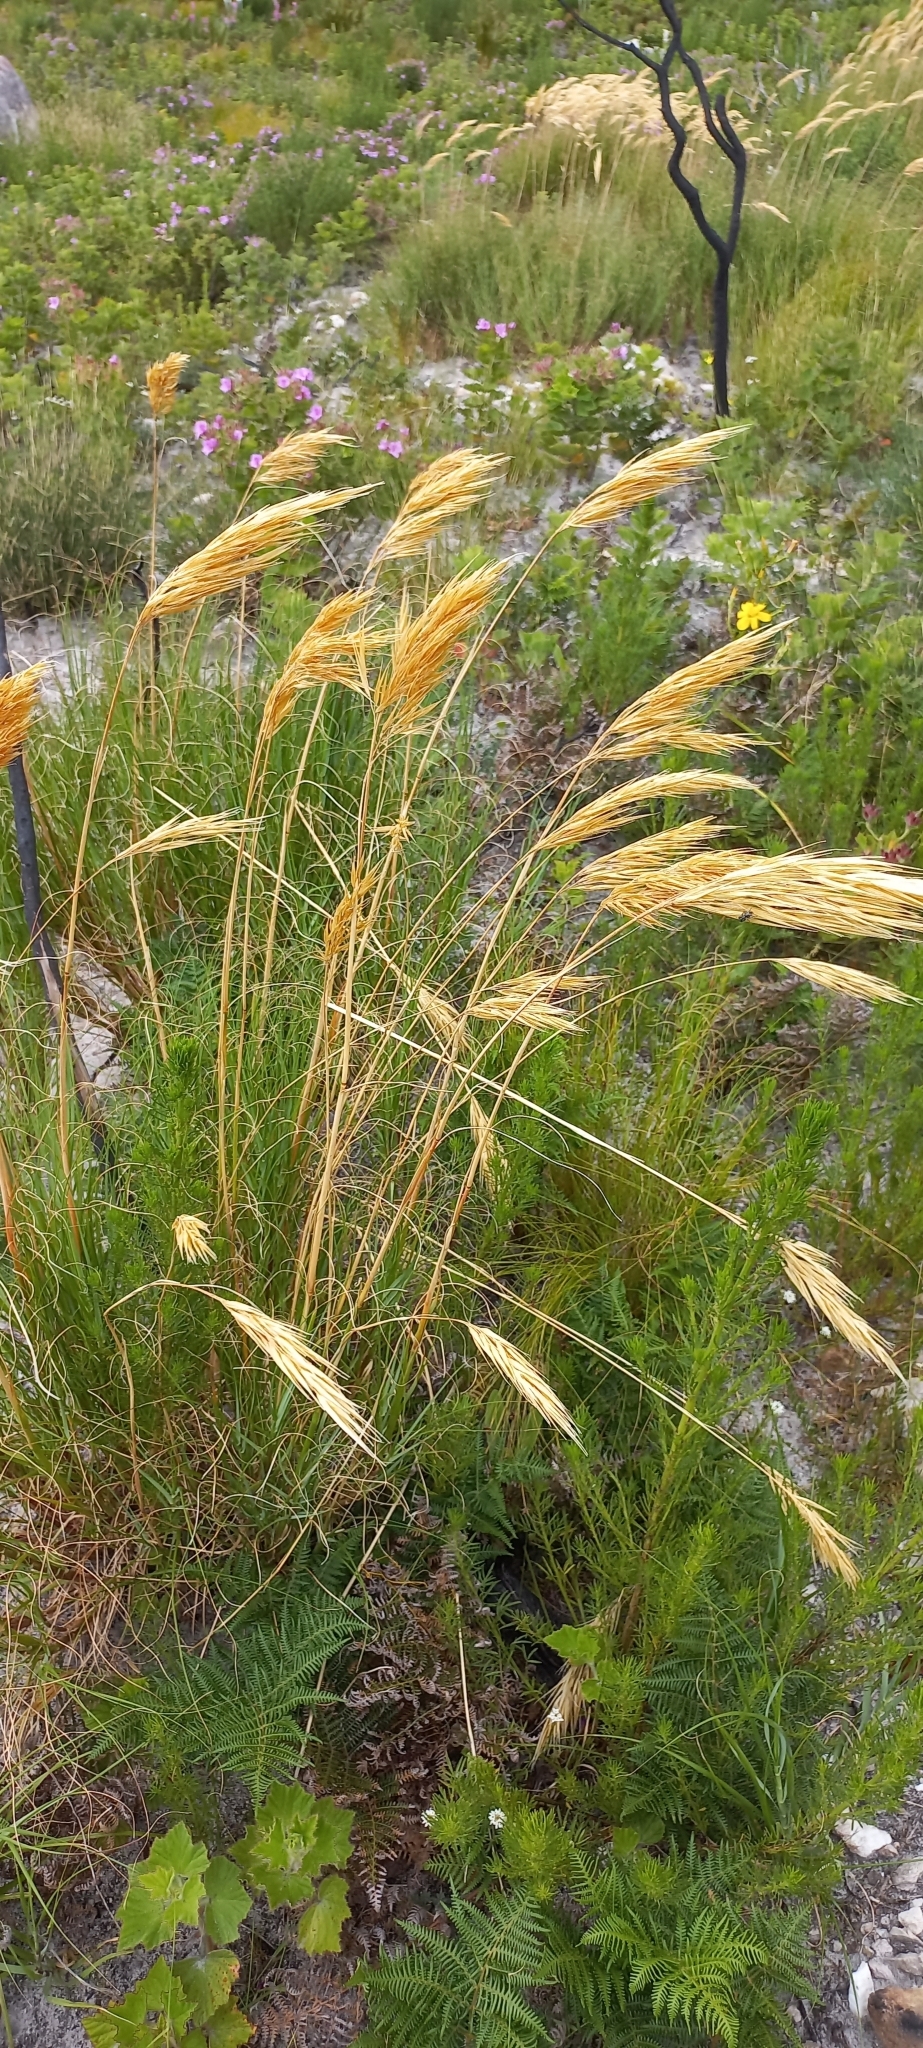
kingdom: Plantae
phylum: Tracheophyta
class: Liliopsida
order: Poales
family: Poaceae
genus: Pseudopentameris
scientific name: Pseudopentameris macrantha
